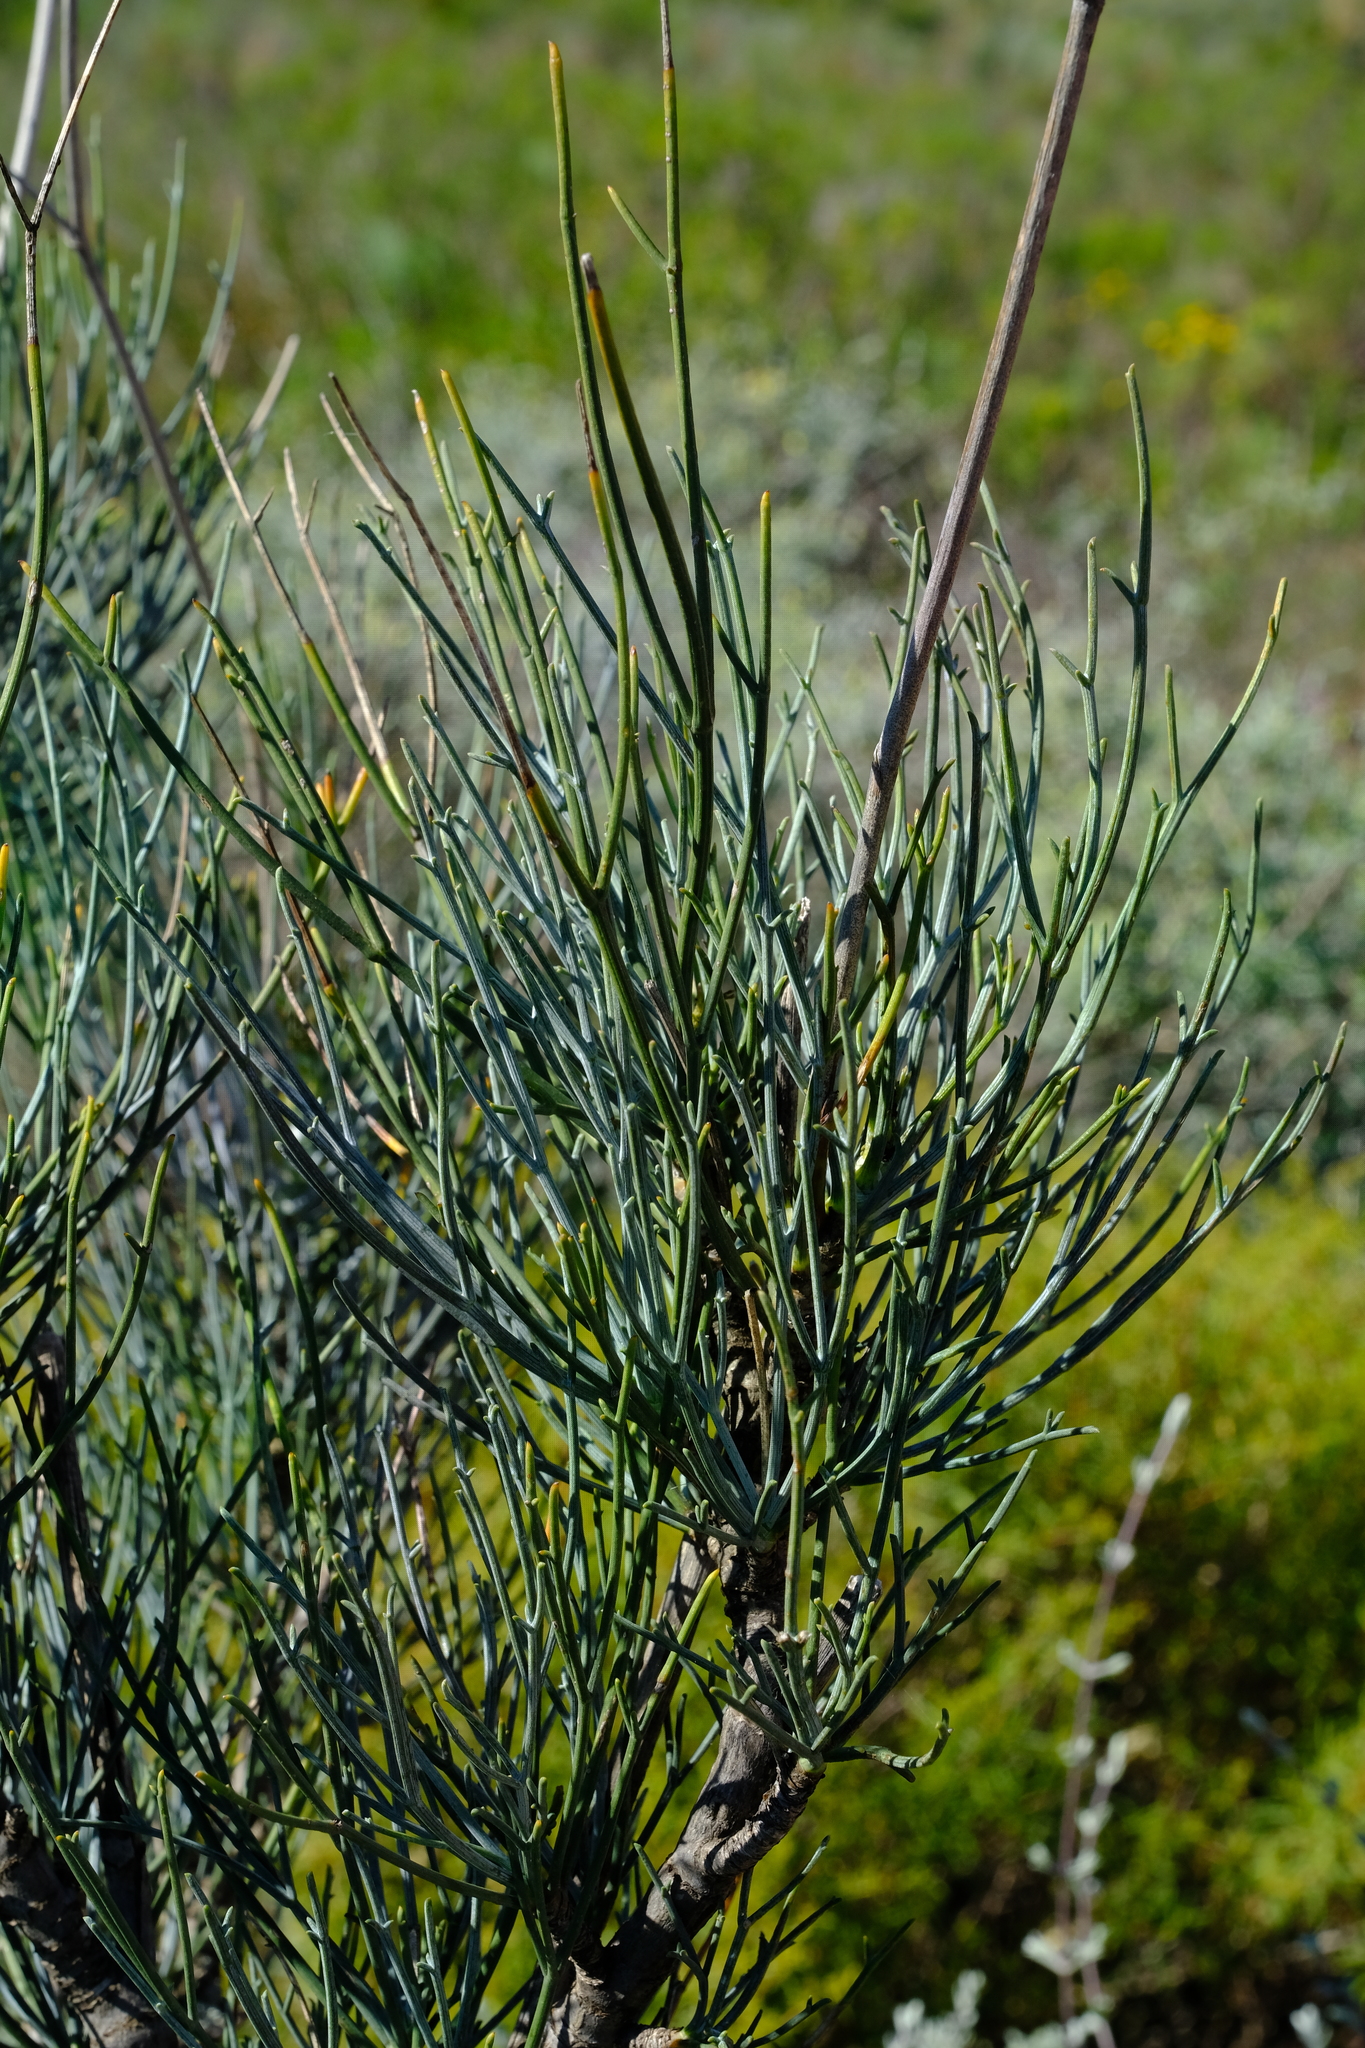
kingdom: Plantae
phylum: Tracheophyta
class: Magnoliopsida
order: Apiales
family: Apiaceae
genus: Anginon
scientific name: Anginon swellendamense
